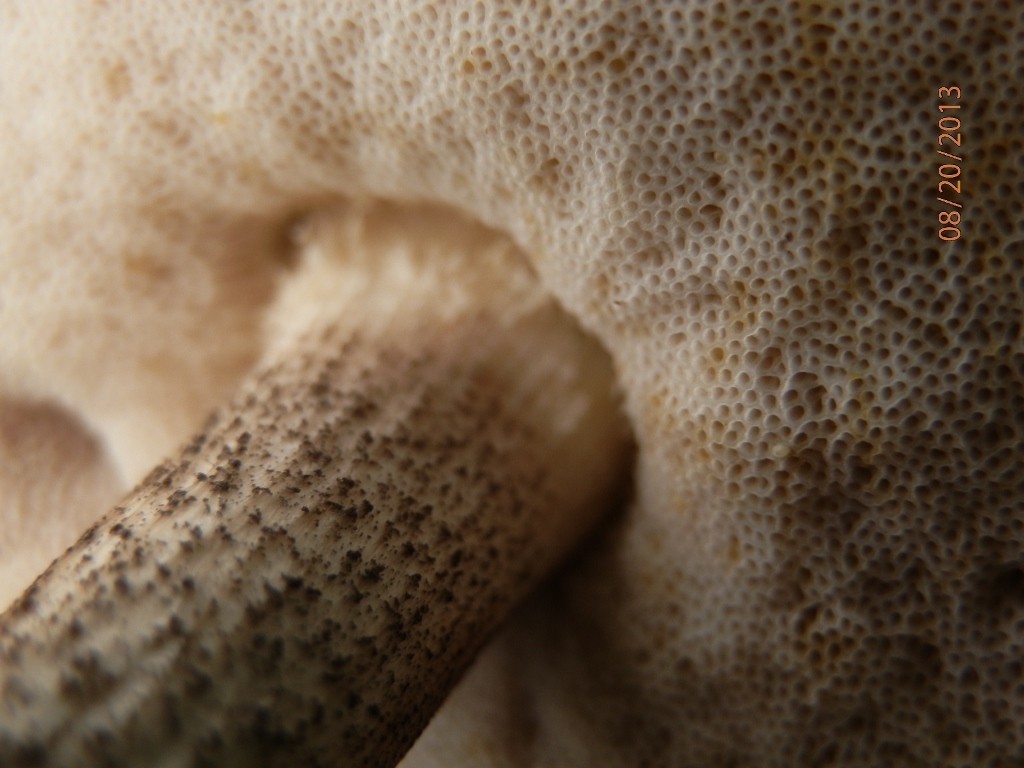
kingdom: Fungi
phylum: Basidiomycota
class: Agaricomycetes
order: Boletales
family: Boletaceae
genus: Leccinum
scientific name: Leccinum scabrum
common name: Blushing bolete
